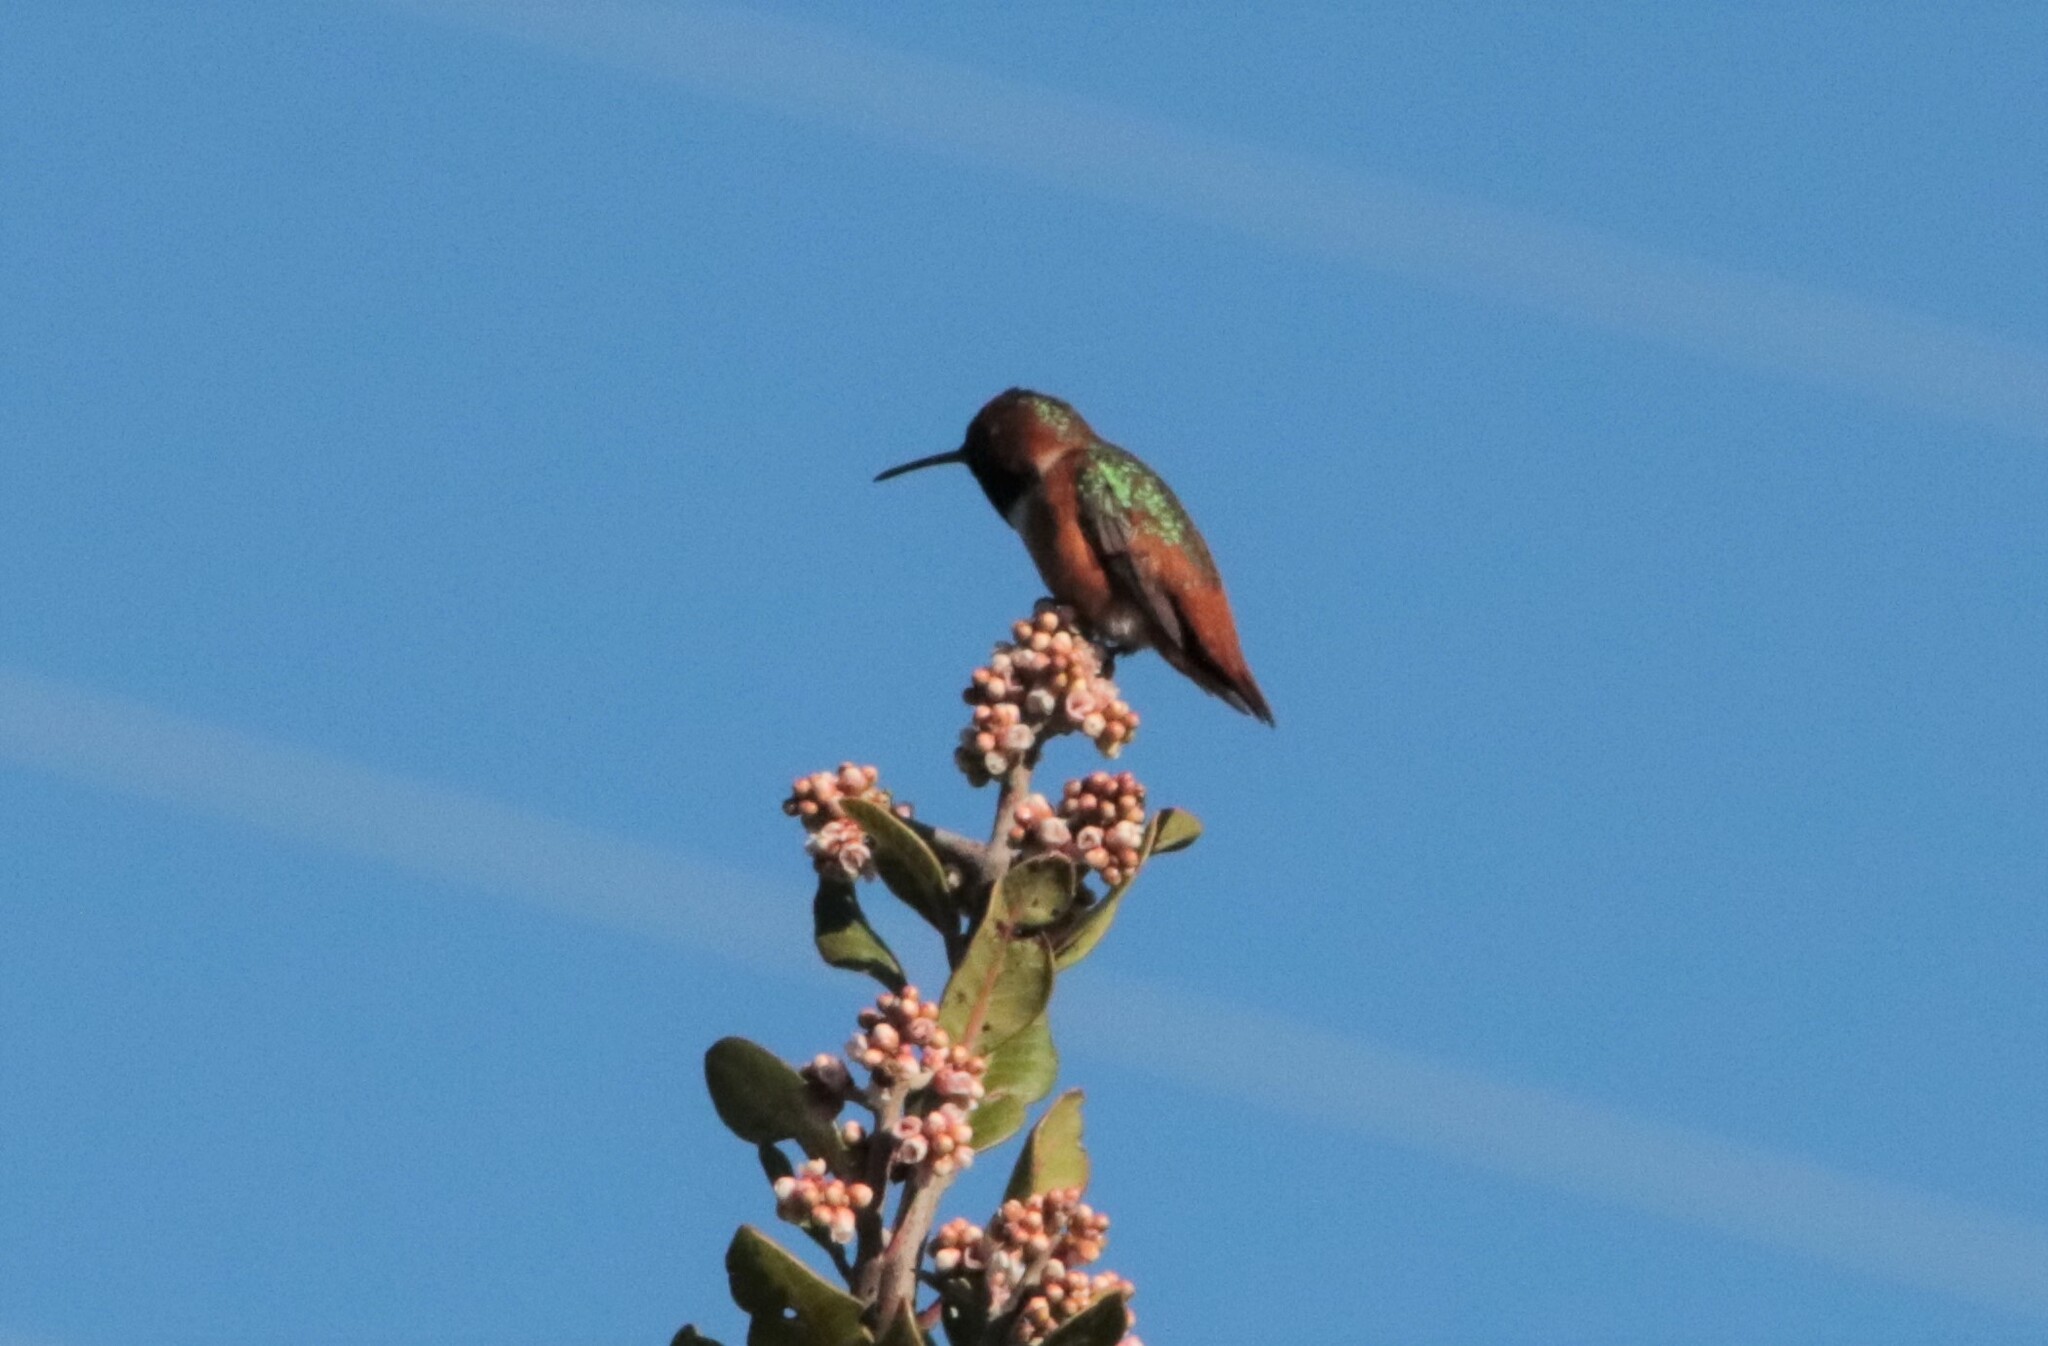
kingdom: Animalia
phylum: Chordata
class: Aves
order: Apodiformes
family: Trochilidae
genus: Selasphorus
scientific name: Selasphorus sasin
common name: Allen's hummingbird
